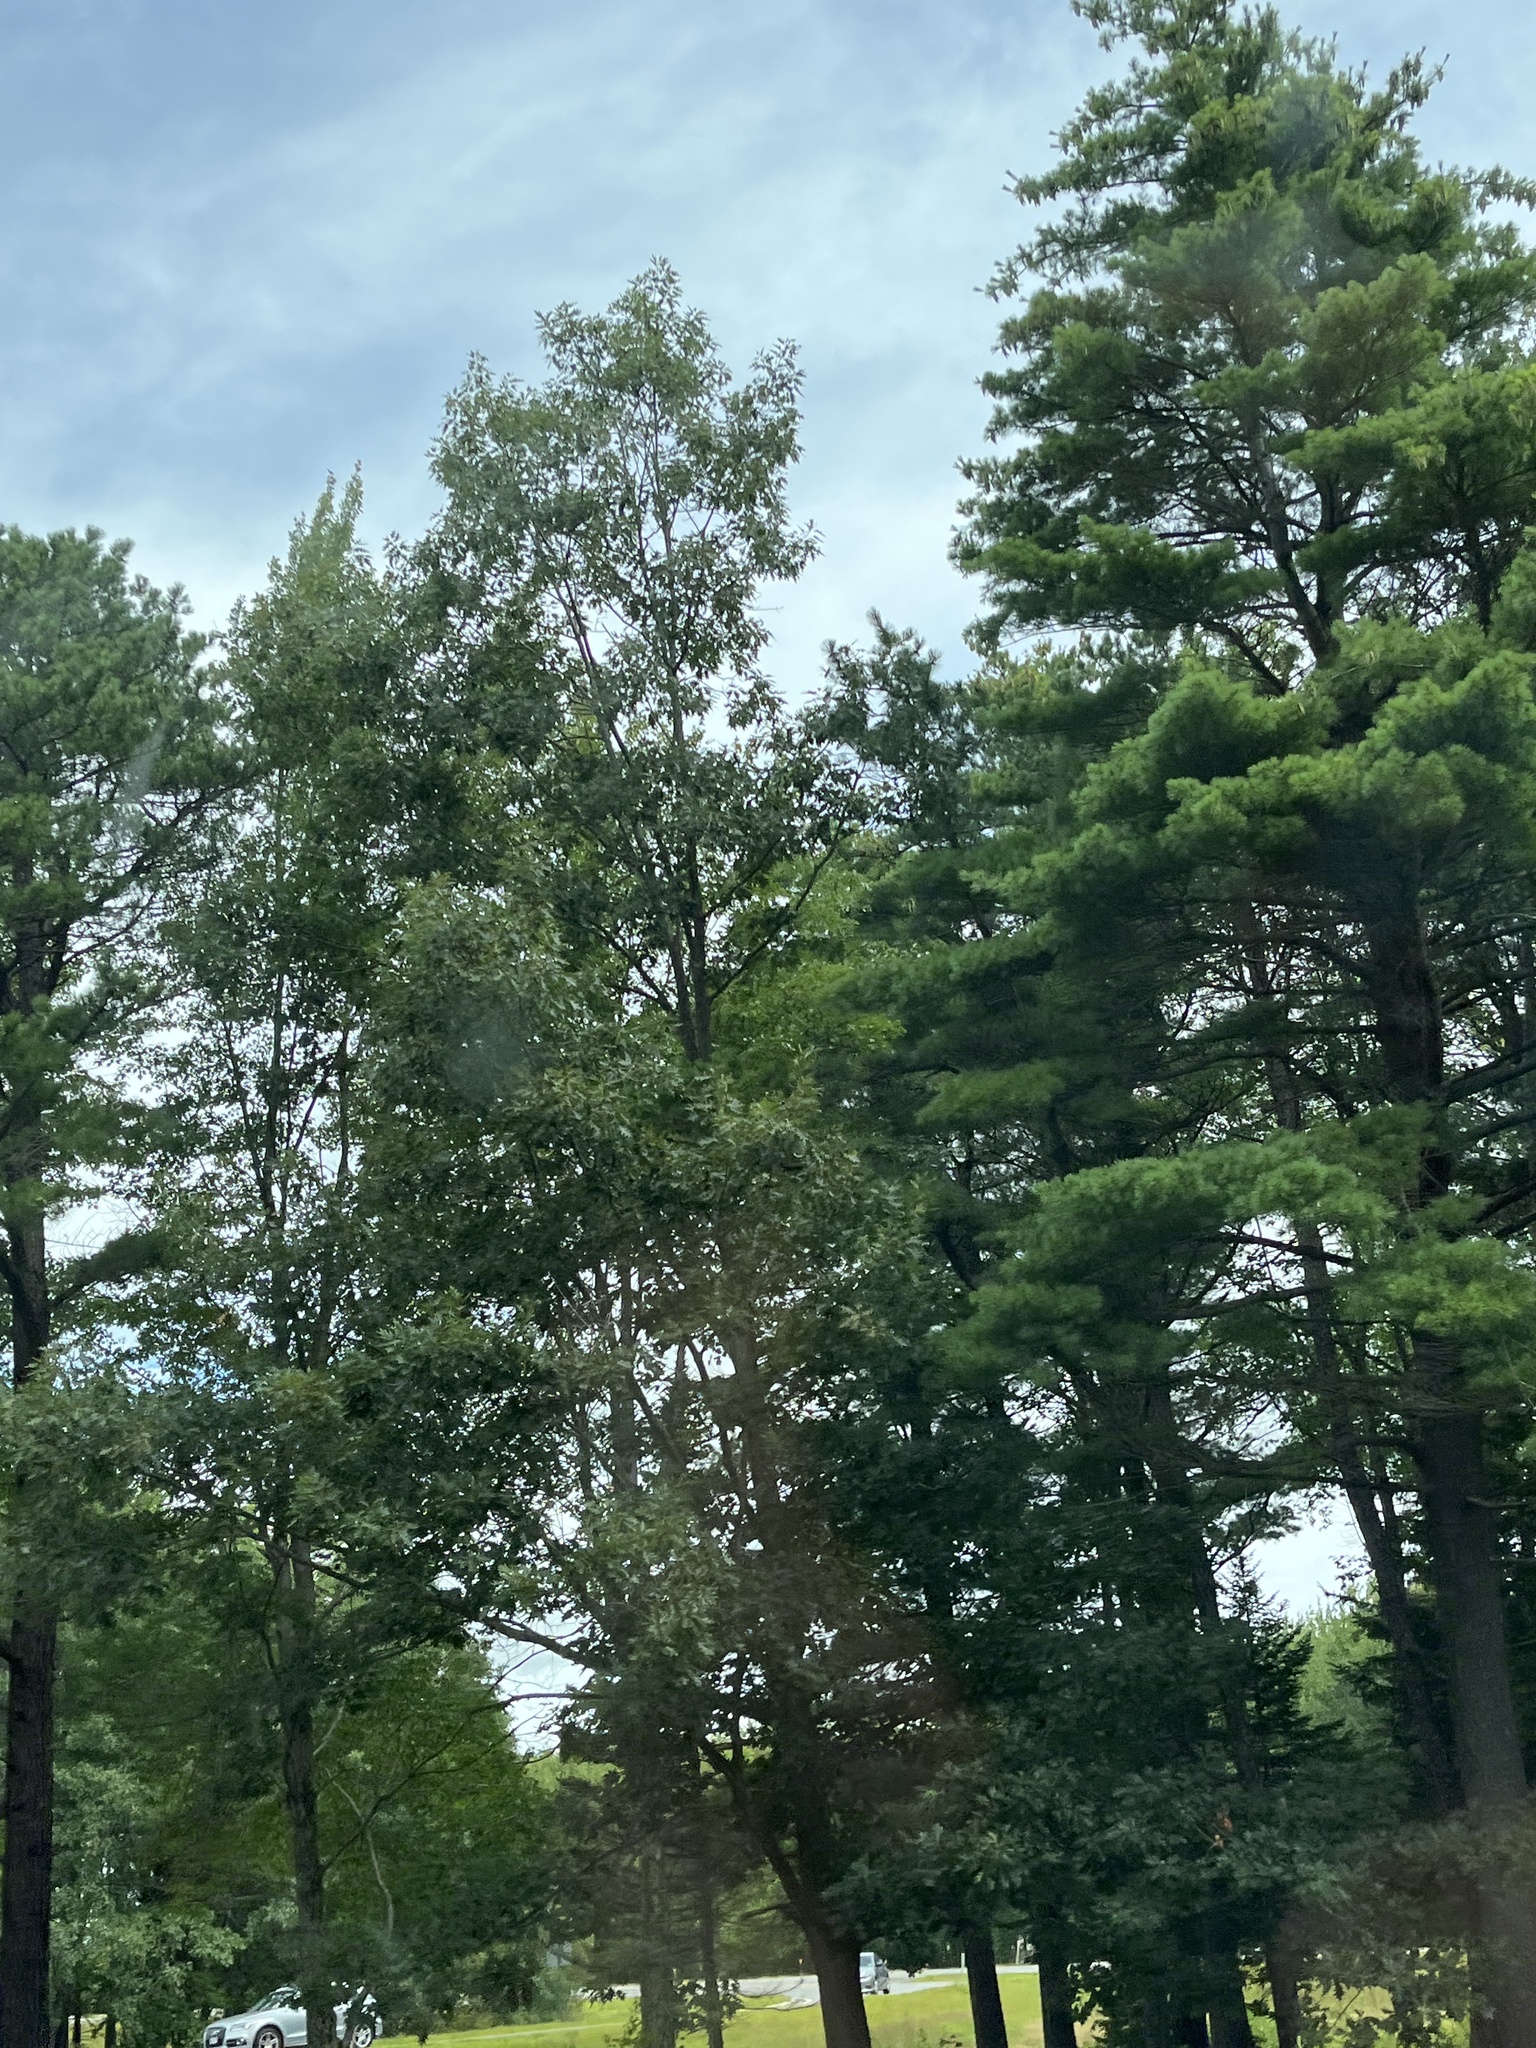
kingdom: Plantae
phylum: Tracheophyta
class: Pinopsida
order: Pinales
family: Pinaceae
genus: Pinus
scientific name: Pinus strobus
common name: Weymouth pine
